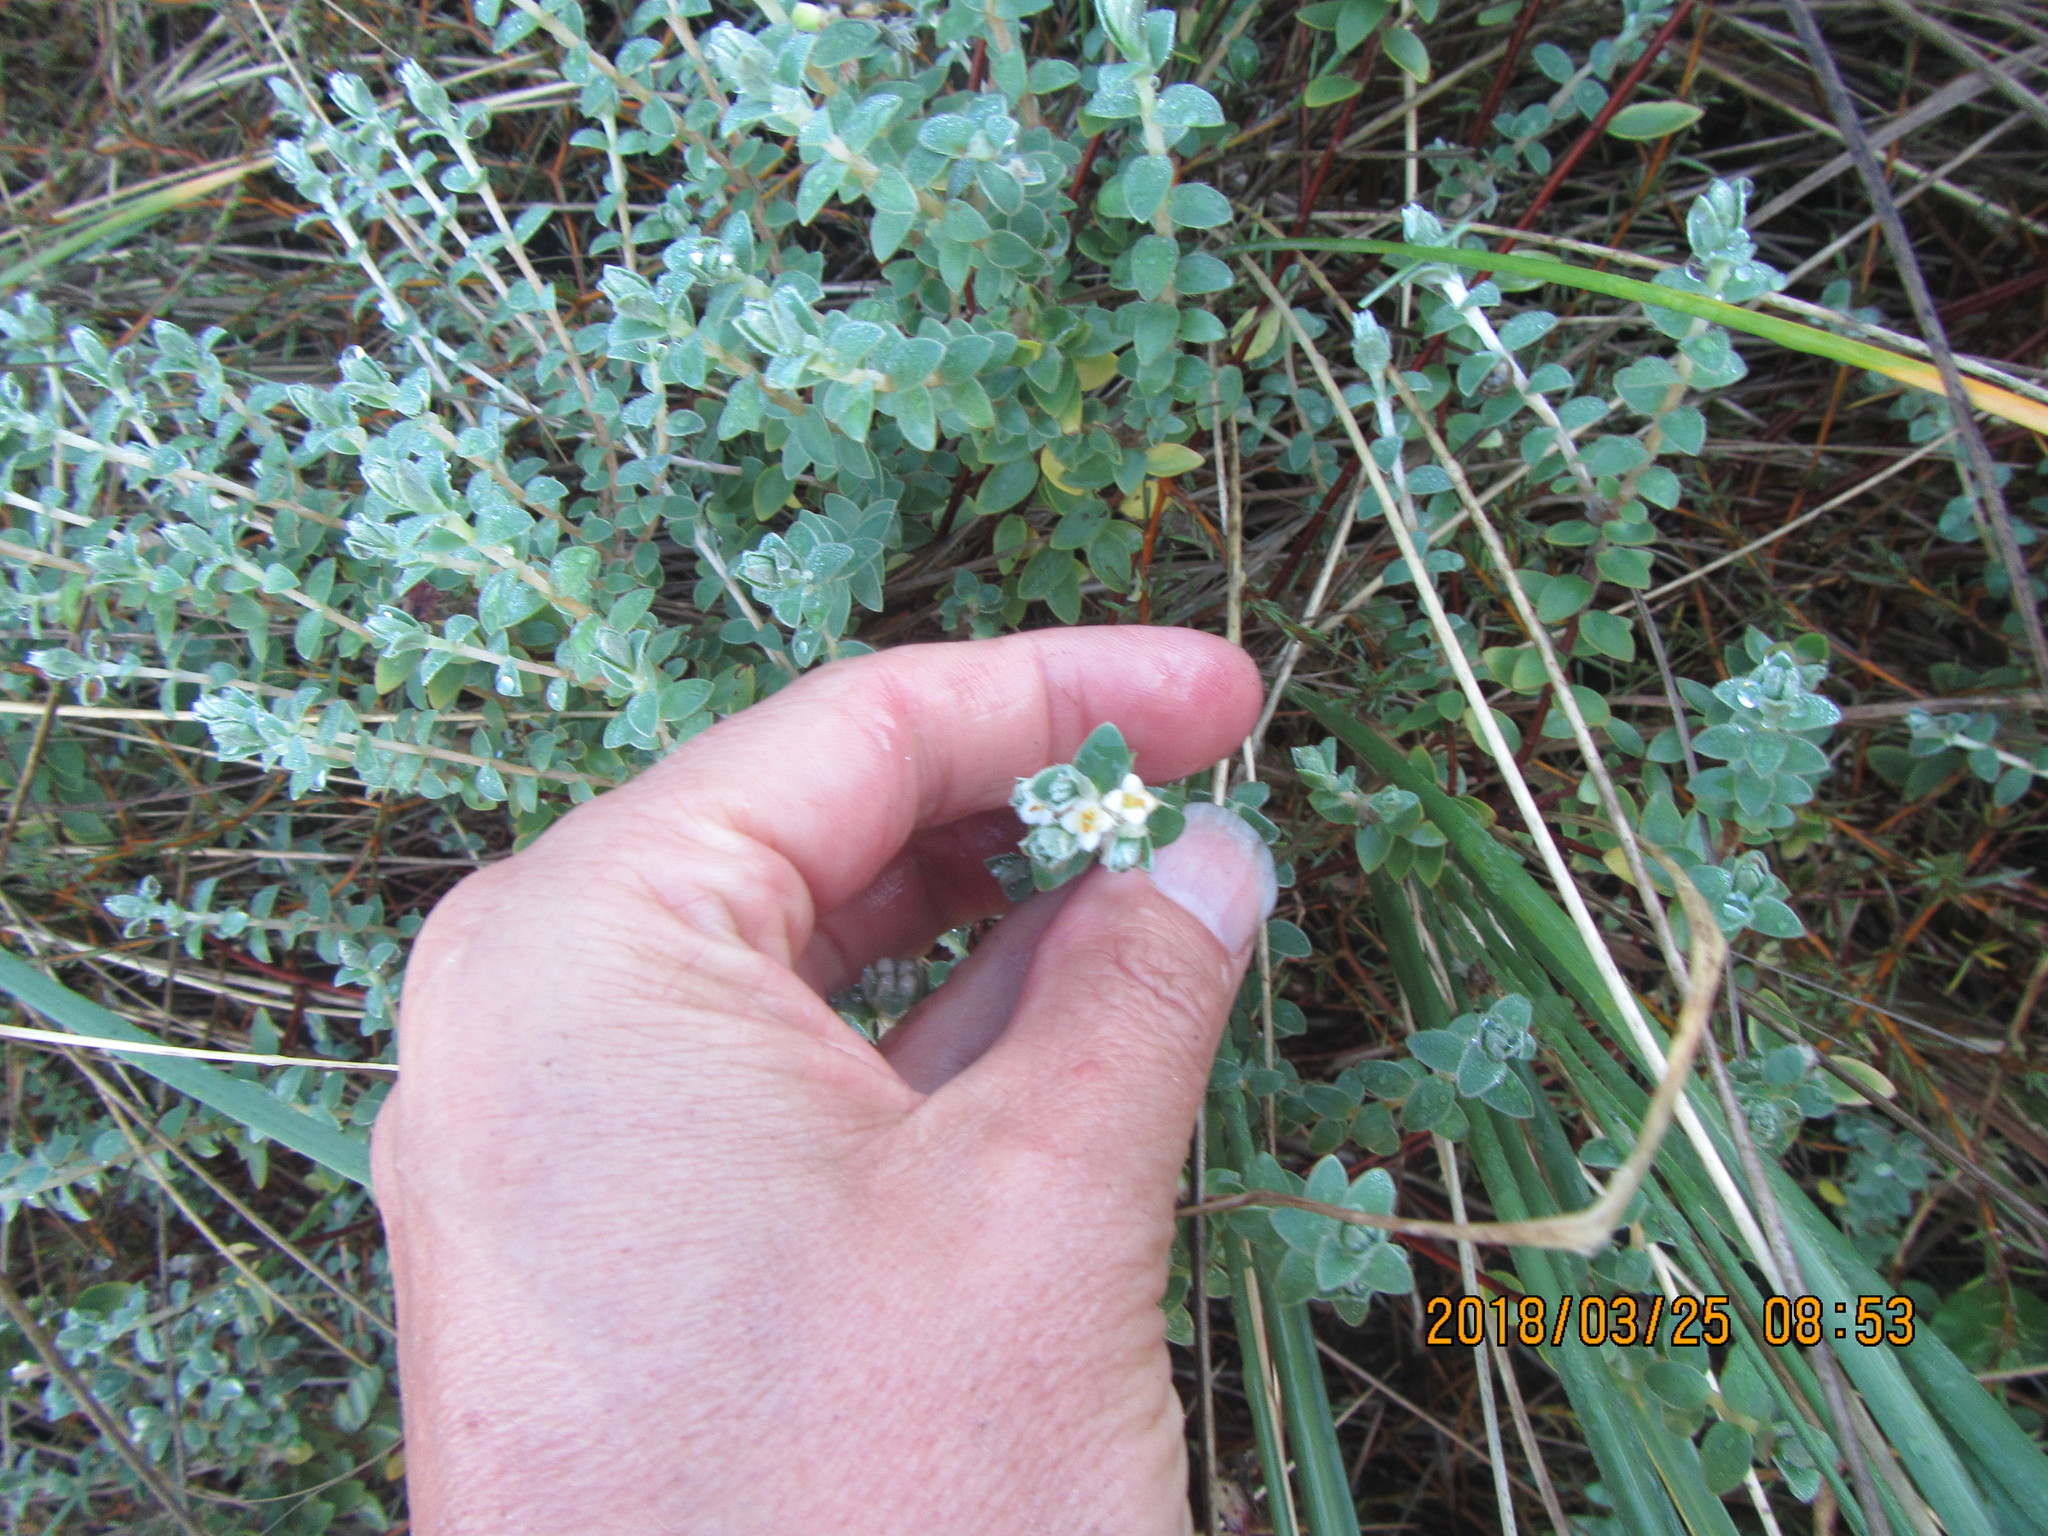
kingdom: Plantae
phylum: Tracheophyta
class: Magnoliopsida
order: Malvales
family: Thymelaeaceae
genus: Pimelea
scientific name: Pimelea villosa
